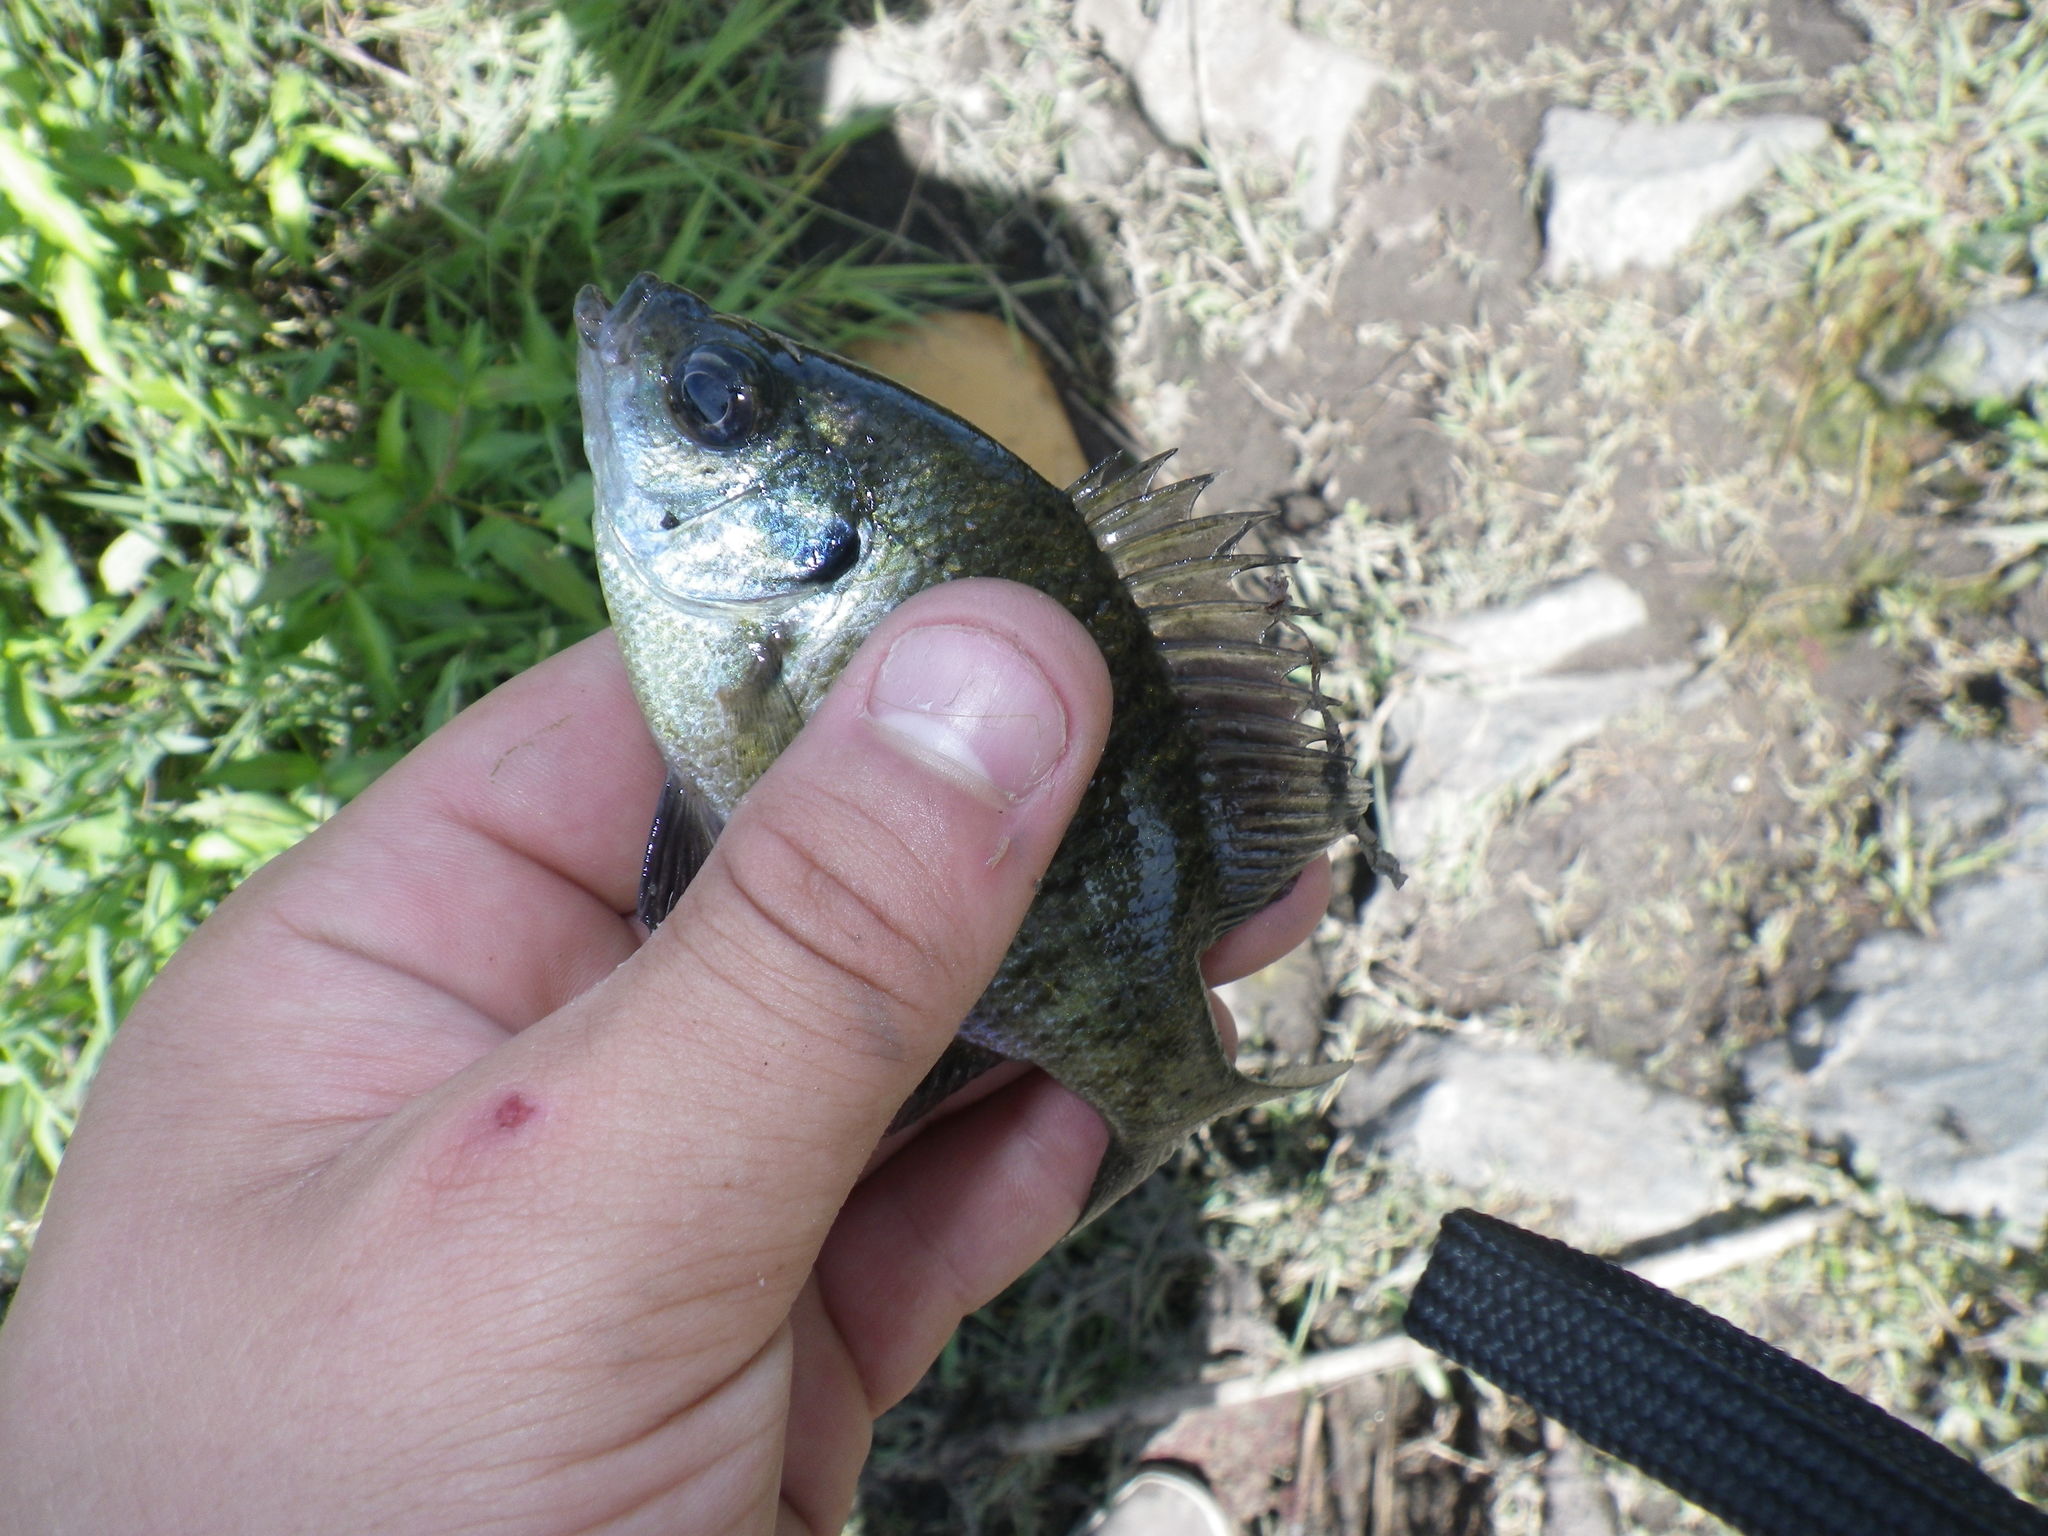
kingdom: Animalia
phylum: Chordata
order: Perciformes
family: Centrarchidae
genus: Lepomis
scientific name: Lepomis macrochirus
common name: Bluegill
